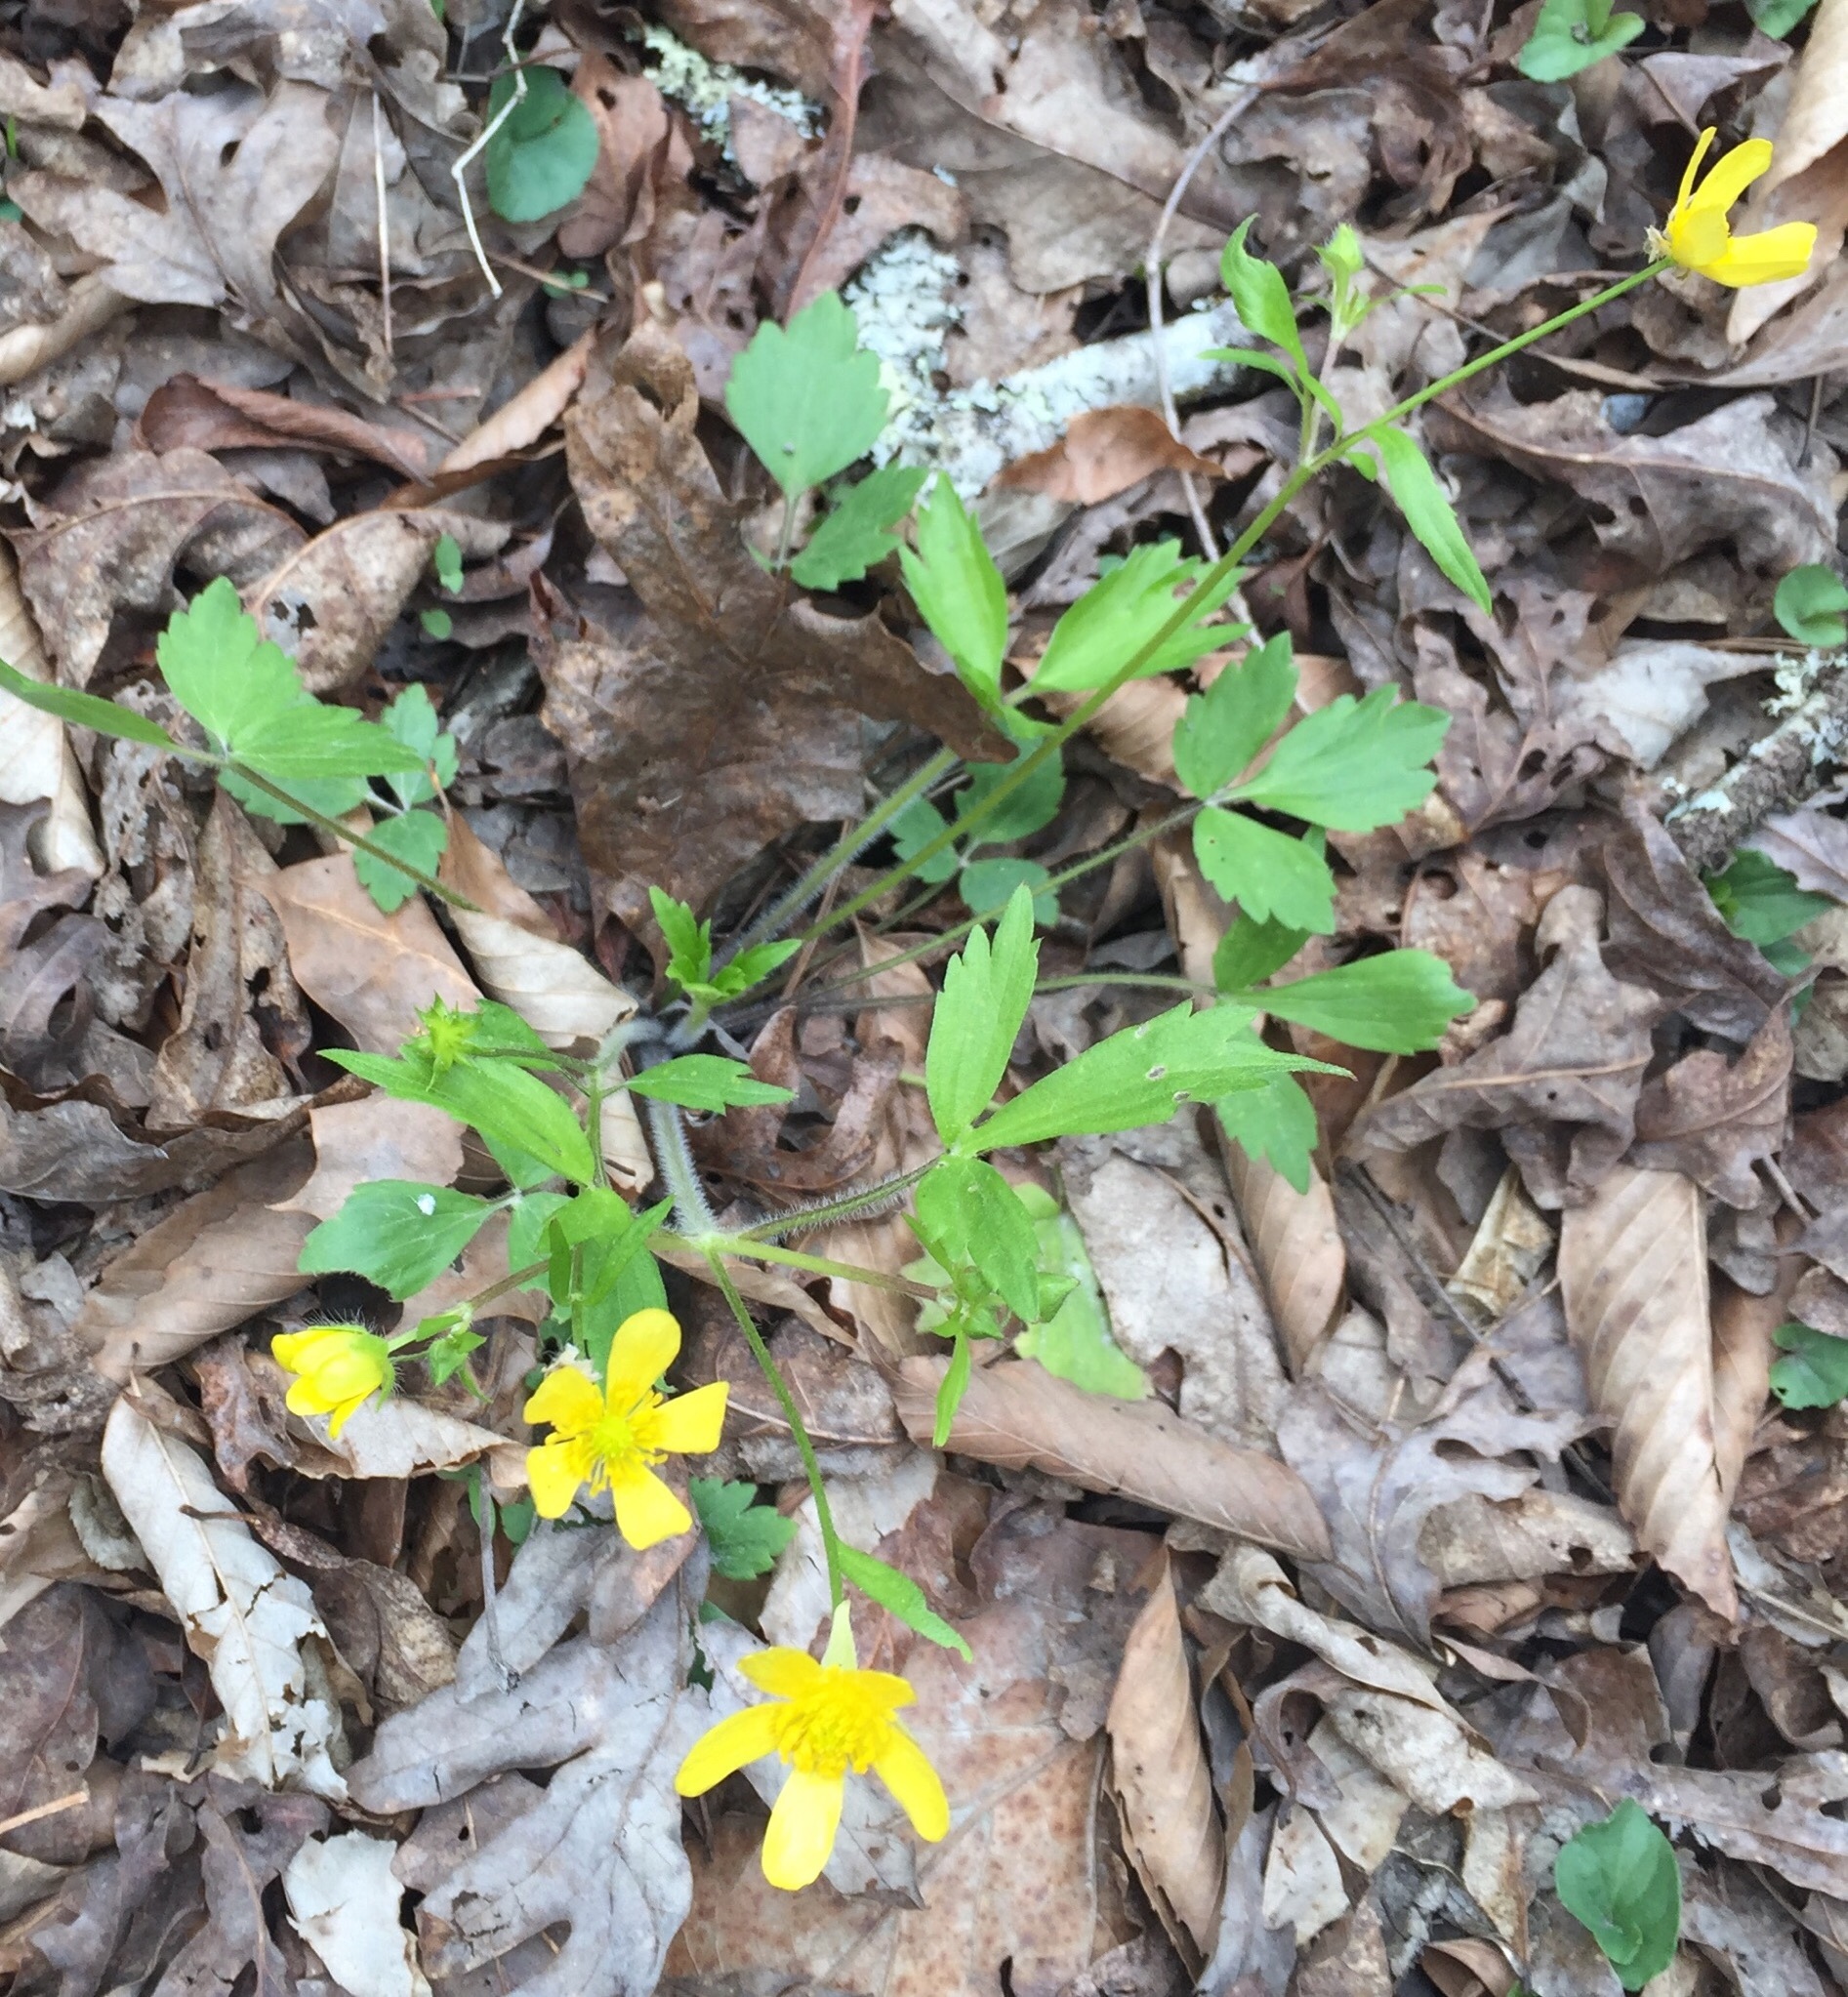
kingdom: Plantae
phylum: Tracheophyta
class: Magnoliopsida
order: Ranunculales
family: Ranunculaceae
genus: Ranunculus
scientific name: Ranunculus hispidus
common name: Bristly buttercup
